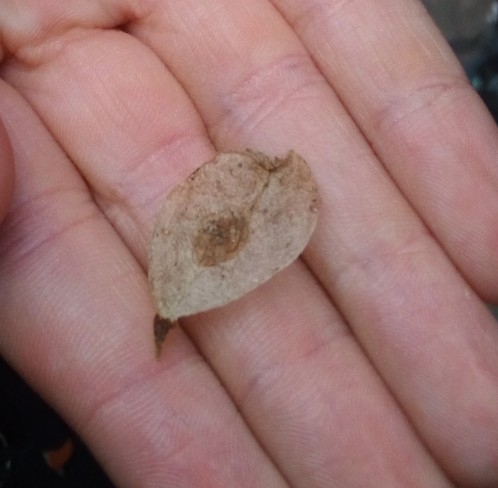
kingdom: Plantae
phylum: Tracheophyta
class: Magnoliopsida
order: Rosales
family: Ulmaceae
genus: Ulmus
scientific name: Ulmus glabra
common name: Wych elm
